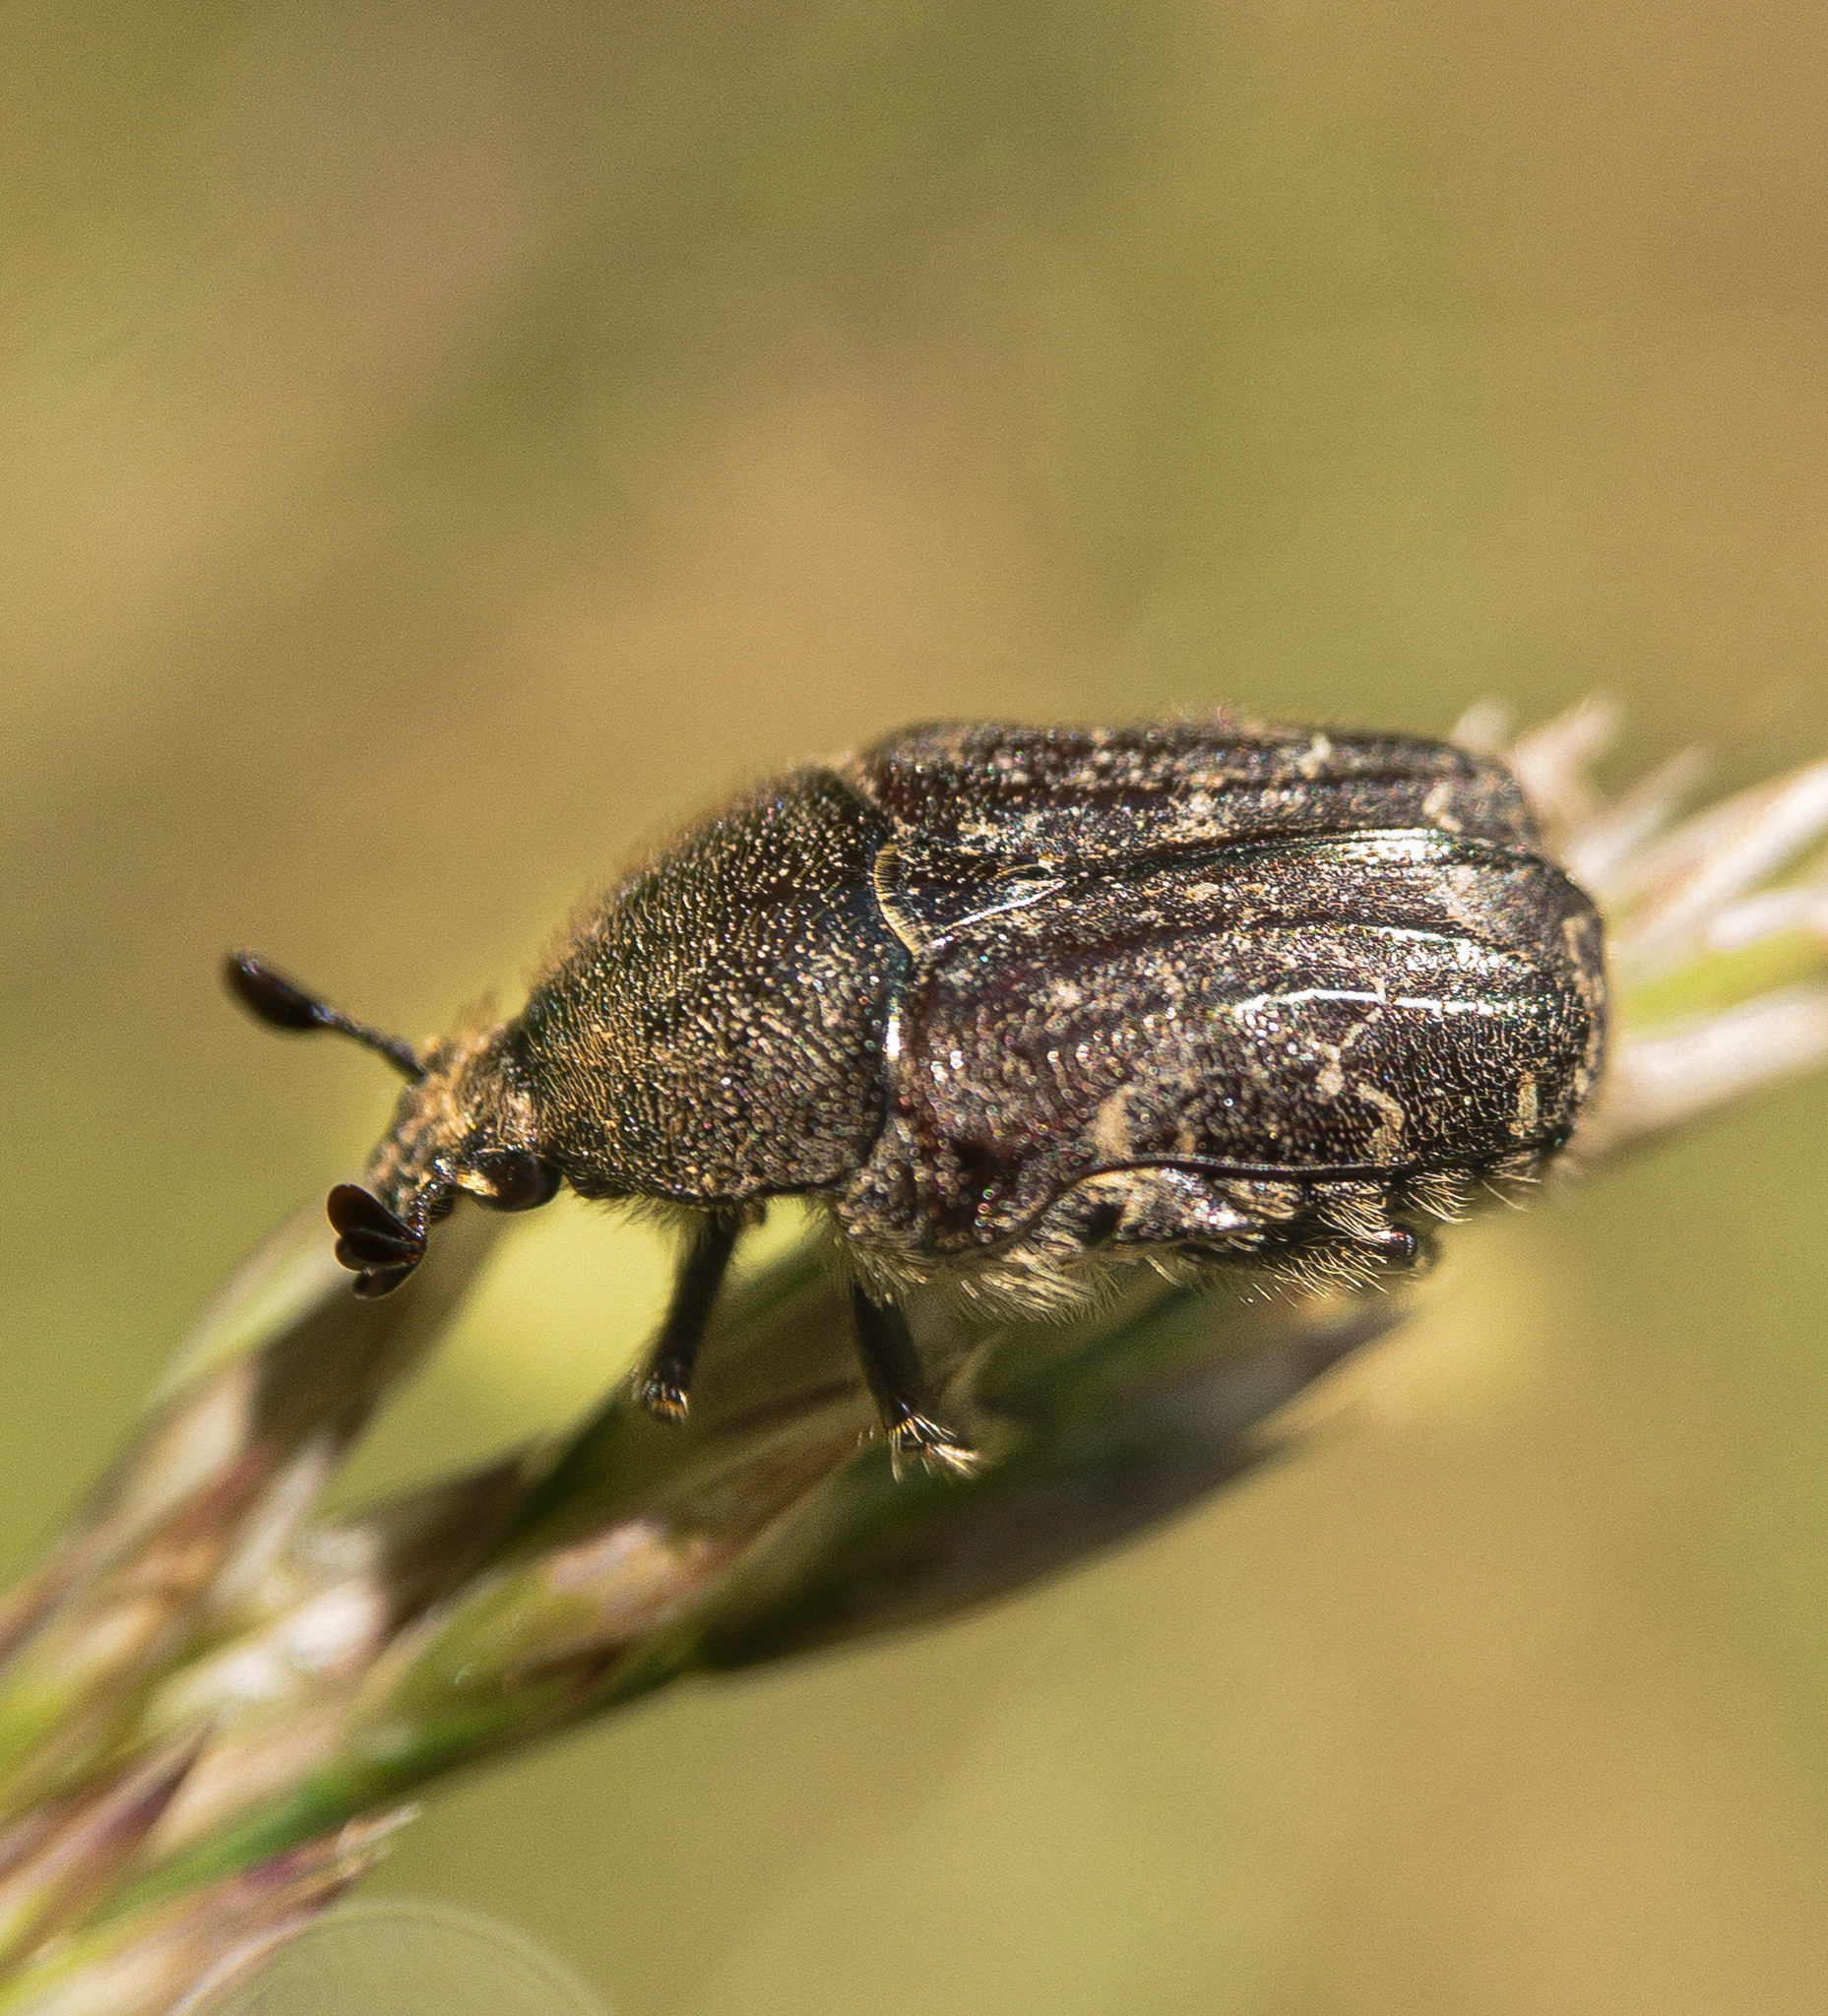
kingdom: Animalia
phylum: Arthropoda
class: Insecta
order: Coleoptera
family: Scarabaeidae
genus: Euphoria
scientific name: Euphoria sepulcralis
